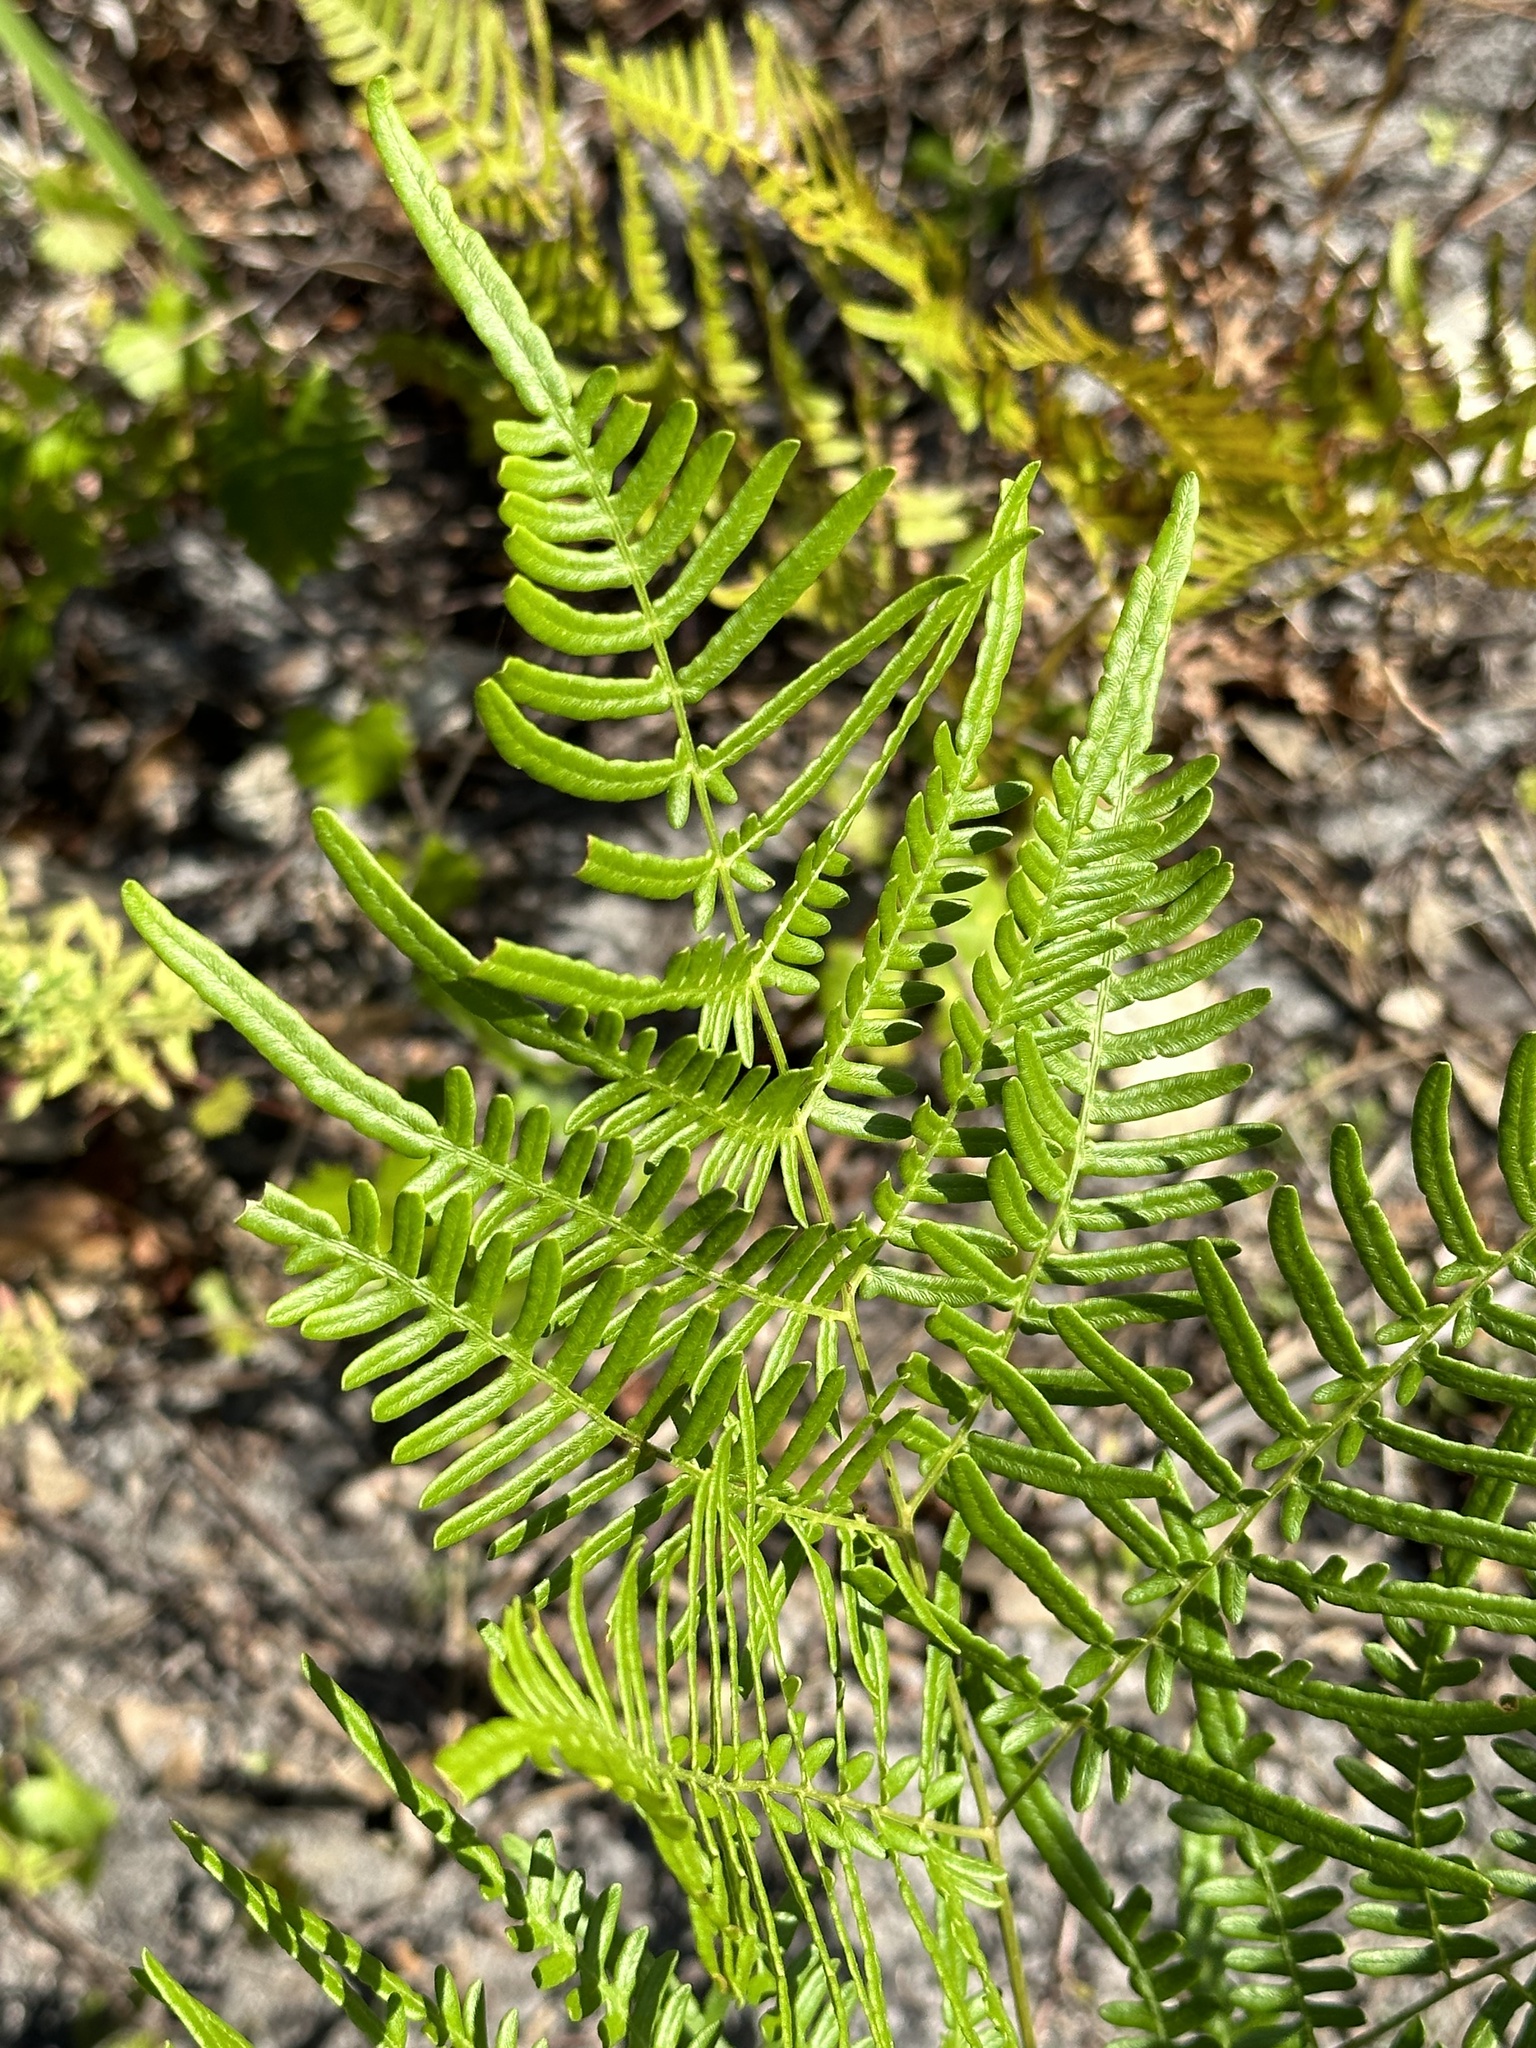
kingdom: Plantae
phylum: Tracheophyta
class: Polypodiopsida
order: Polypodiales
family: Dennstaedtiaceae
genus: Pteridium
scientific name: Pteridium
